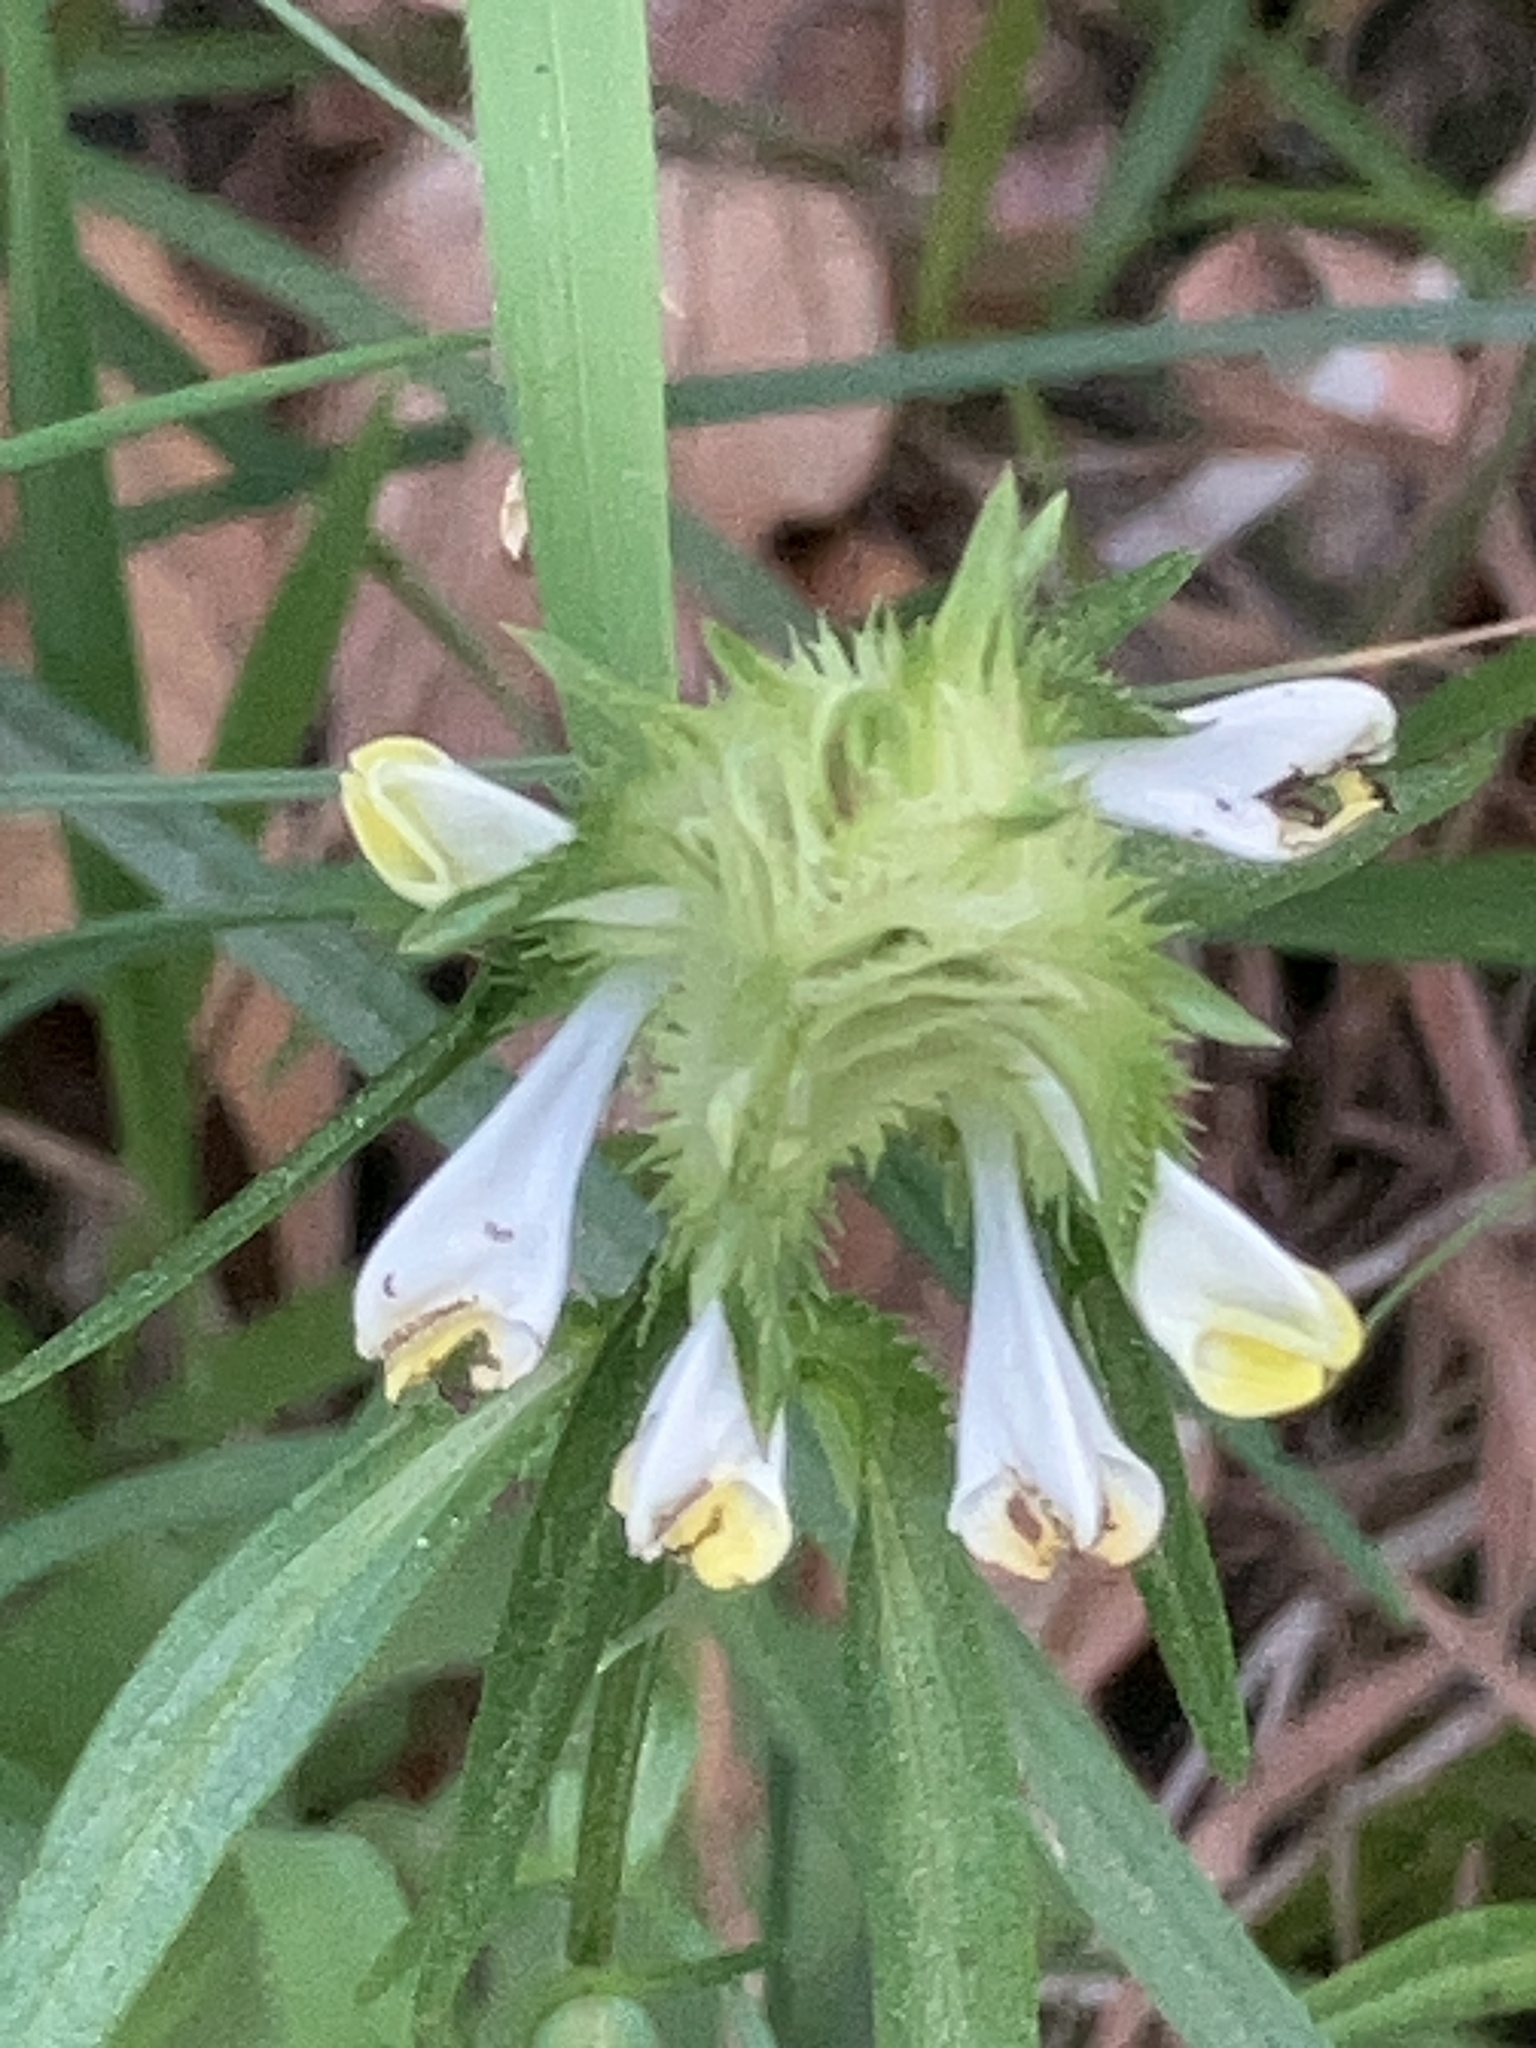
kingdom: Plantae
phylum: Tracheophyta
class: Magnoliopsida
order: Lamiales
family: Orobanchaceae
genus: Melampyrum
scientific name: Melampyrum cristatum
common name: Crested cow-wheat
